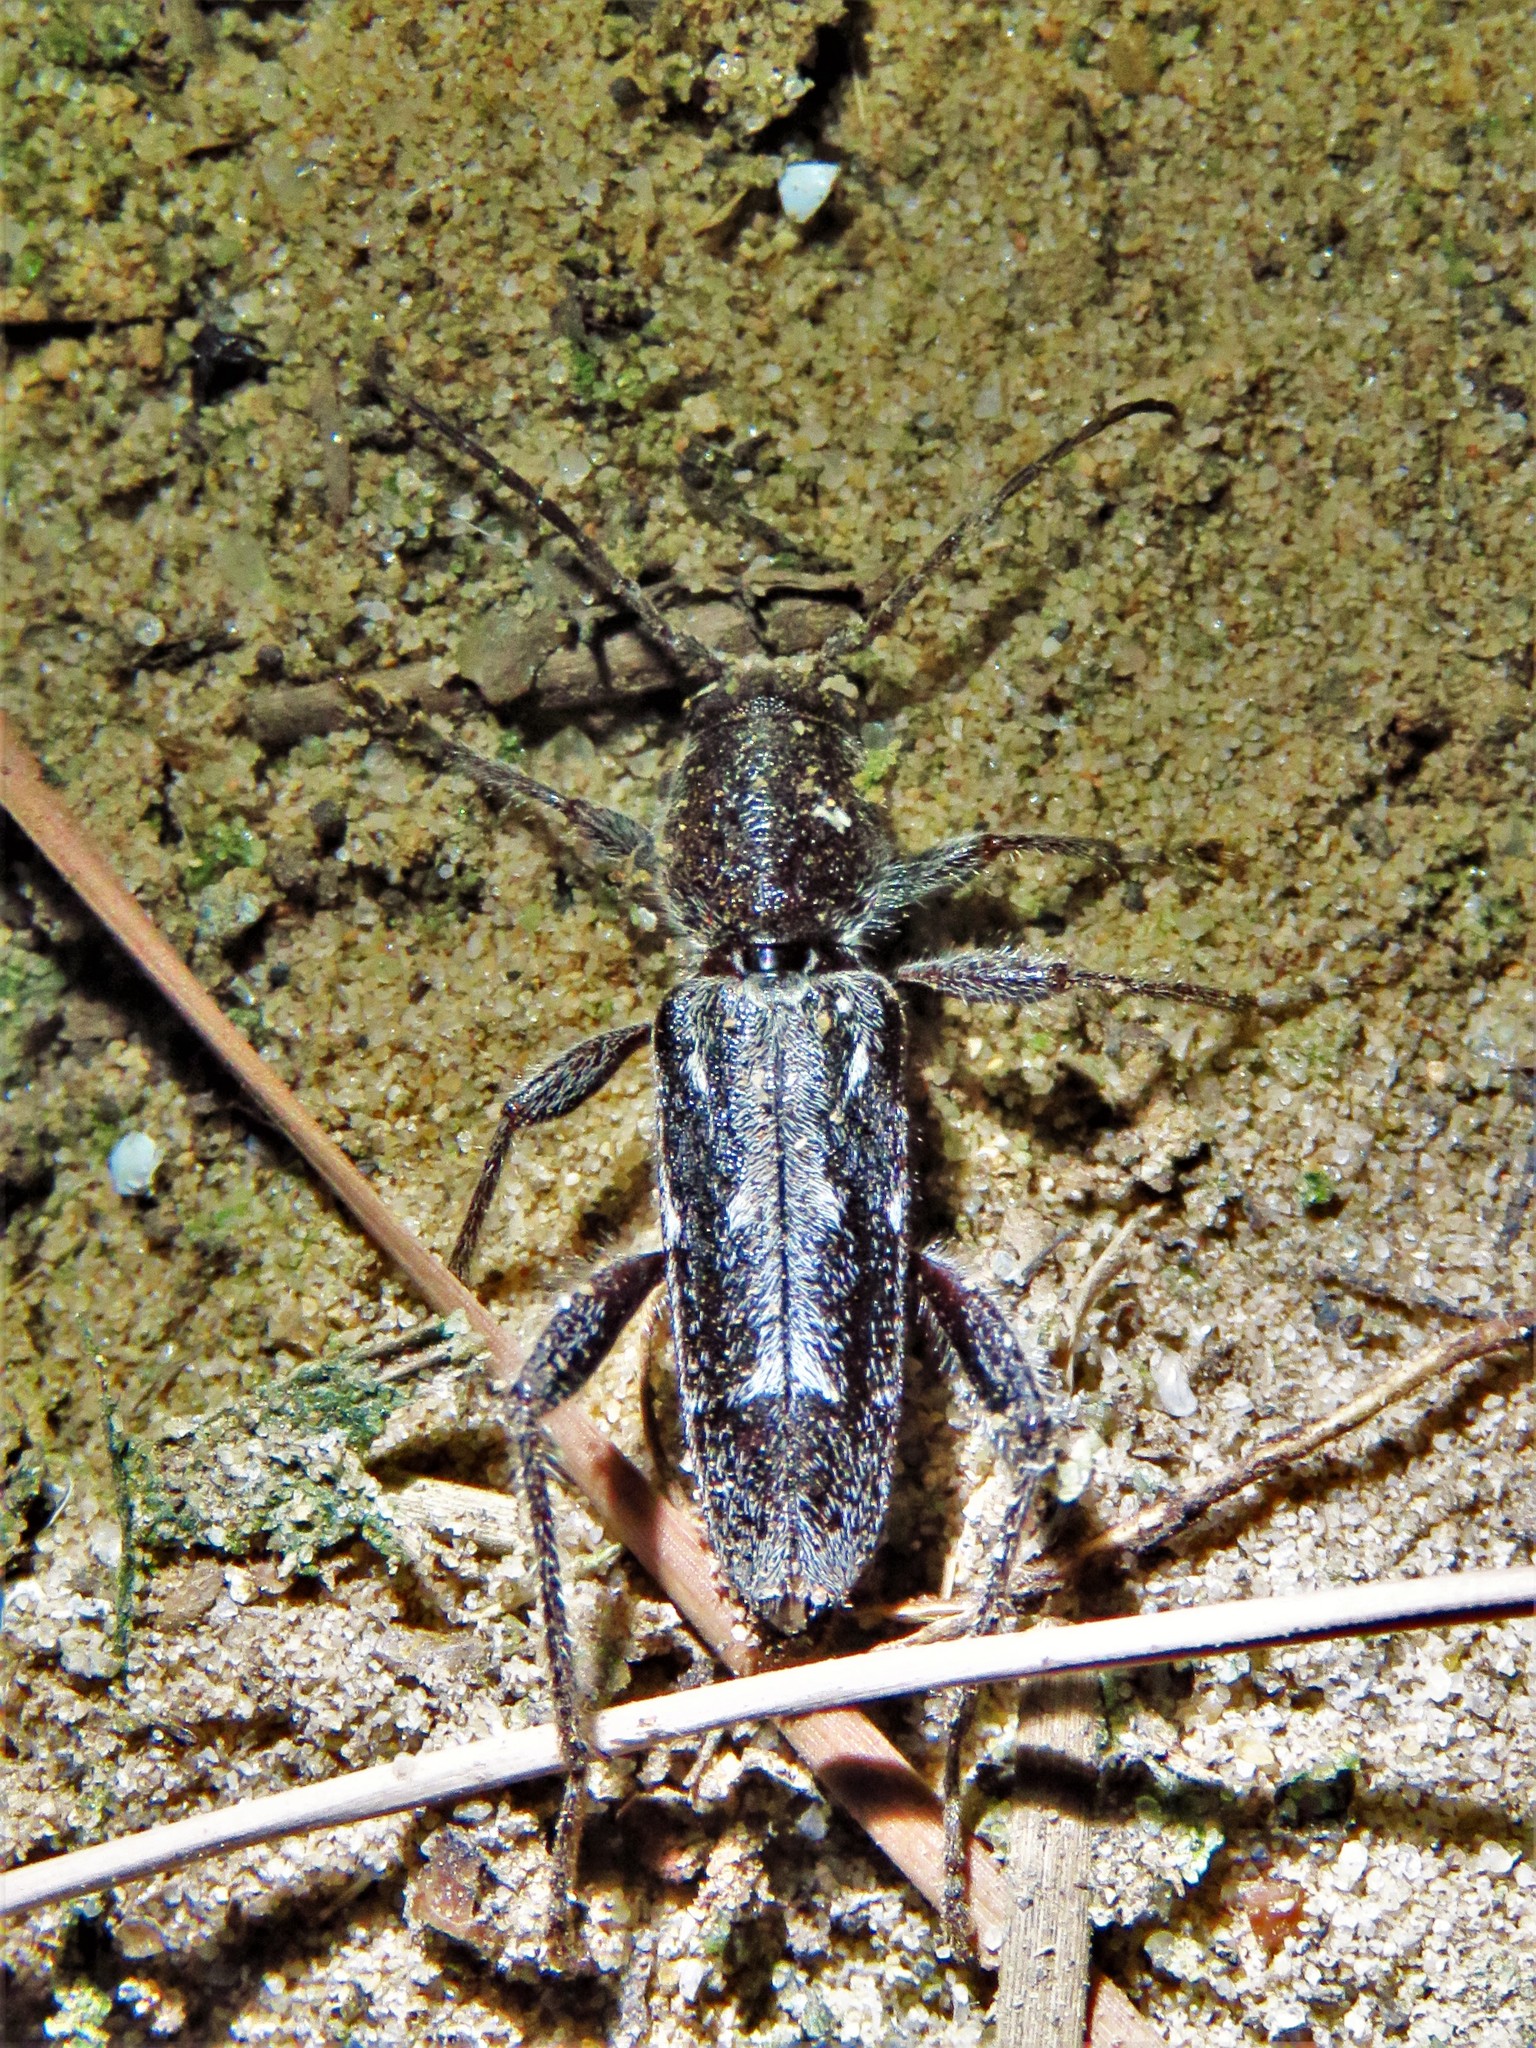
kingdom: Animalia
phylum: Arthropoda
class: Insecta
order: Coleoptera
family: Cerambycidae
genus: Xylotrechus
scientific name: Xylotrechus sagittatus
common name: Arrowhead borer
